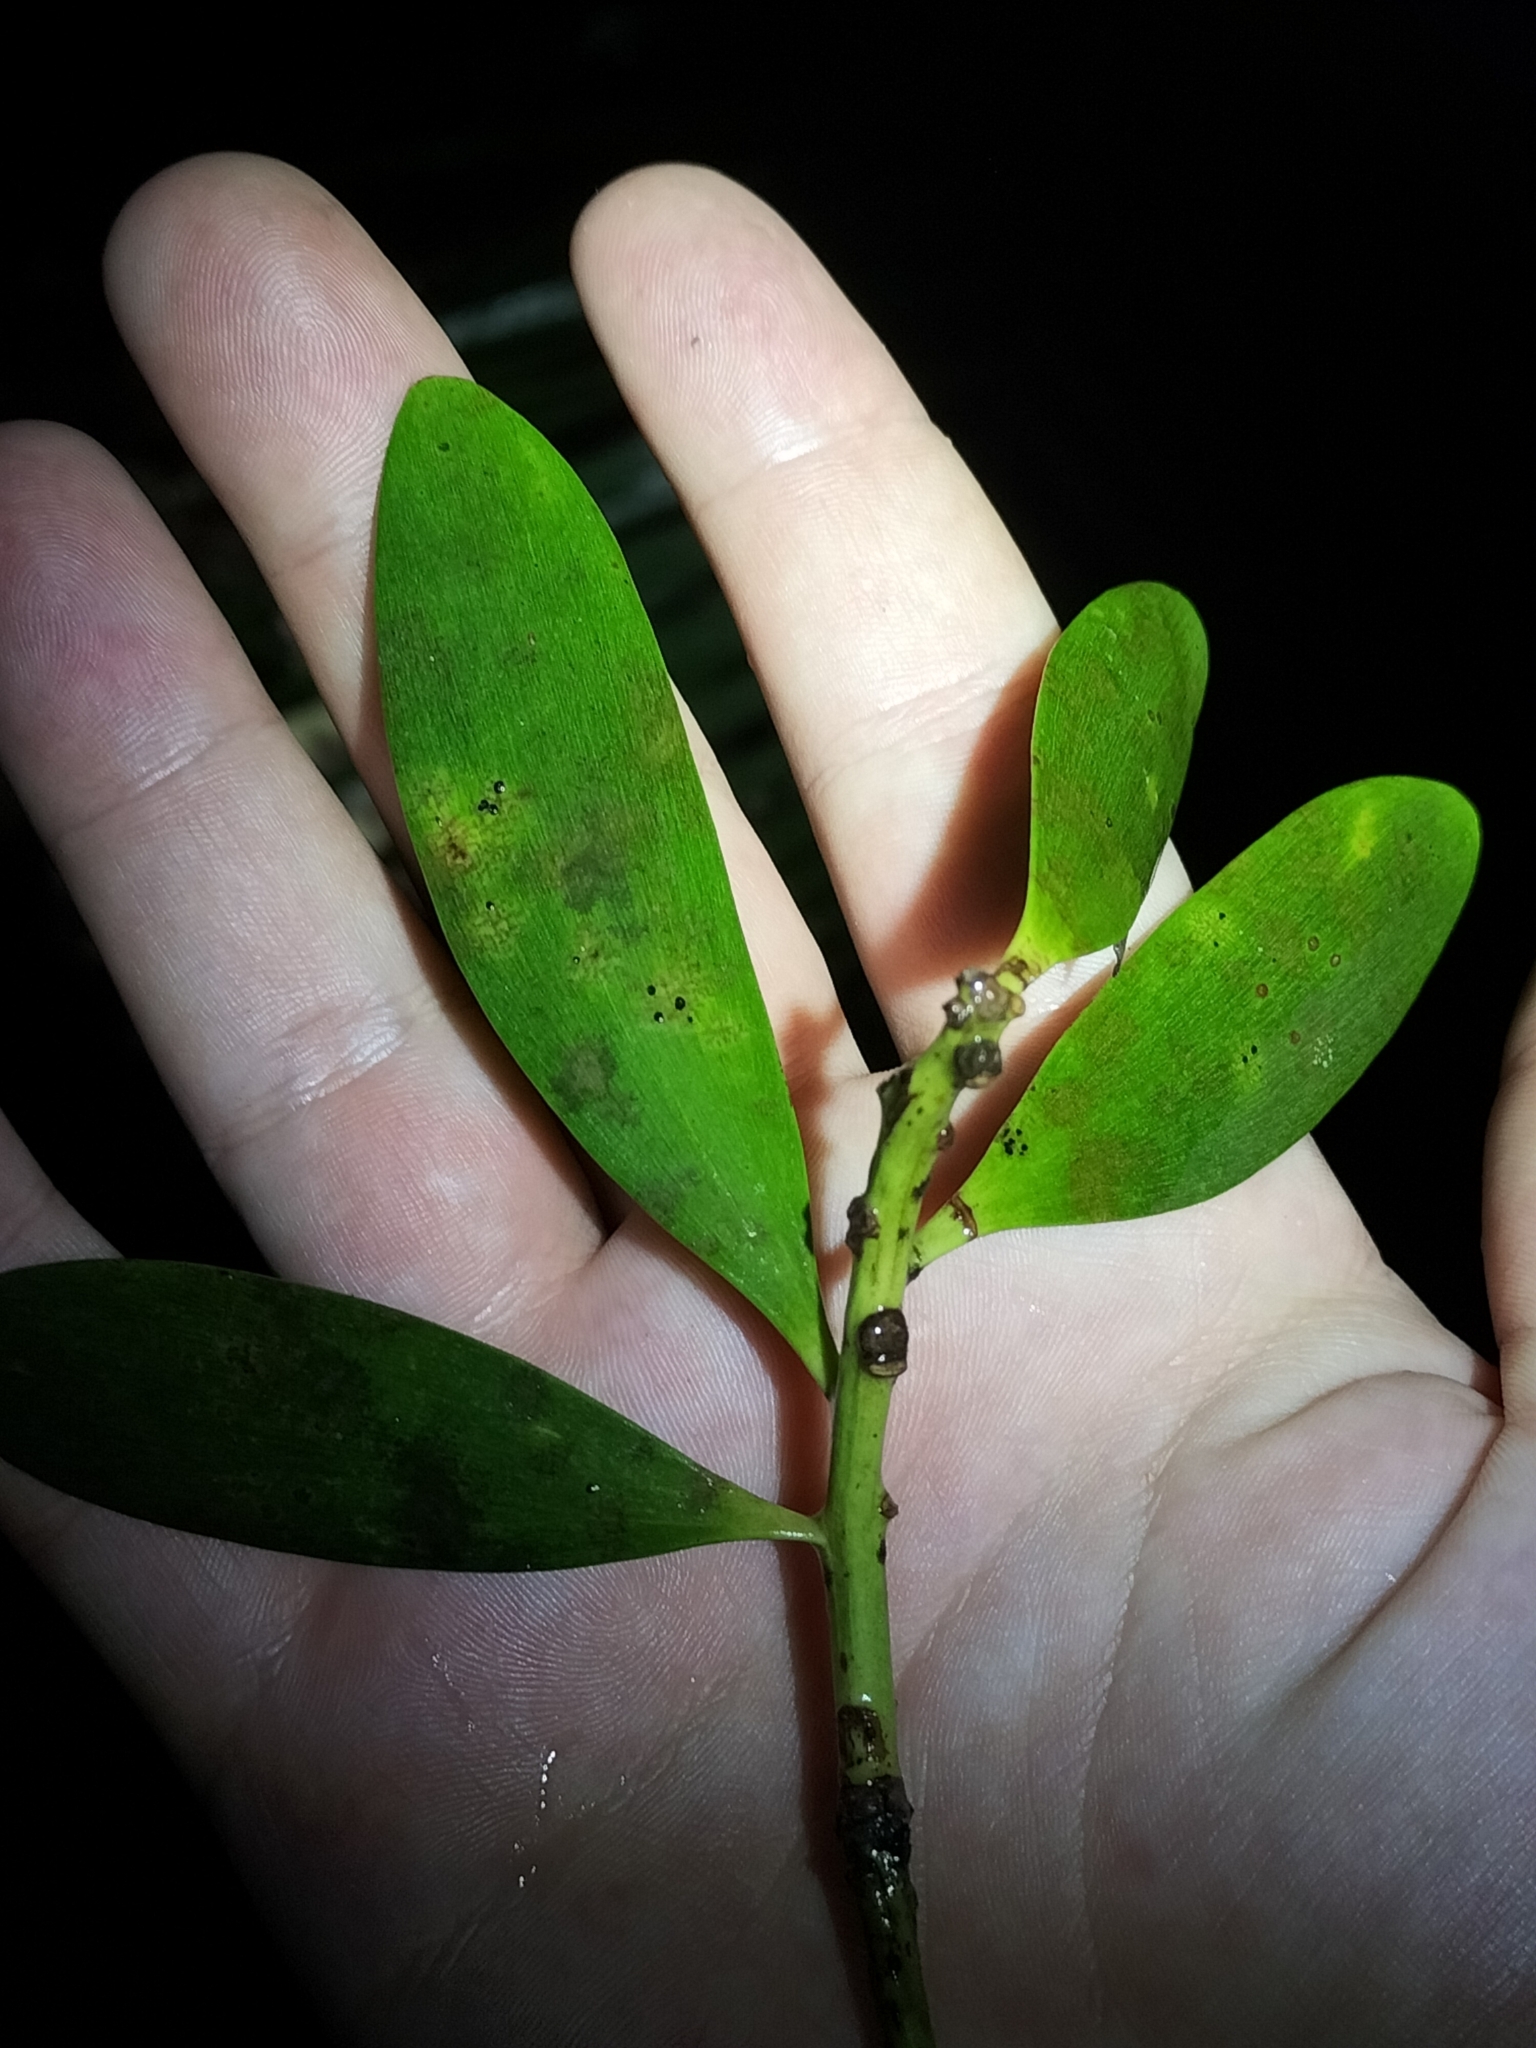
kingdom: Plantae
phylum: Tracheophyta
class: Pinopsida
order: Pinales
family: Araucariaceae
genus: Agathis
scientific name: Agathis robusta
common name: Australian-kauri
